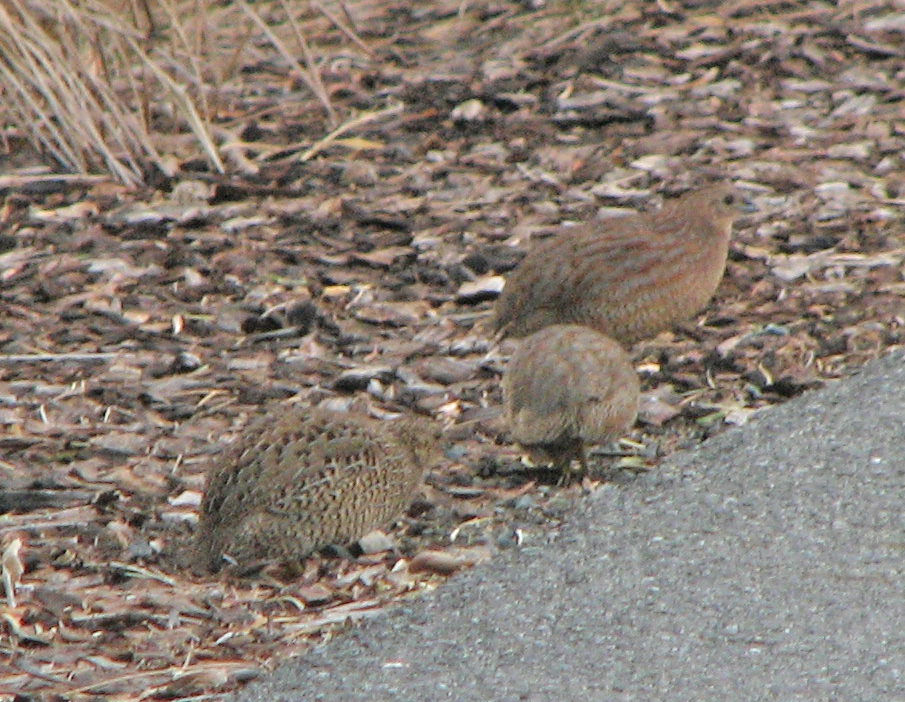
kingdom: Animalia
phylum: Chordata
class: Aves
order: Galliformes
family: Phasianidae
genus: Synoicus
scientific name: Synoicus ypsilophorus
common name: Brown quail
